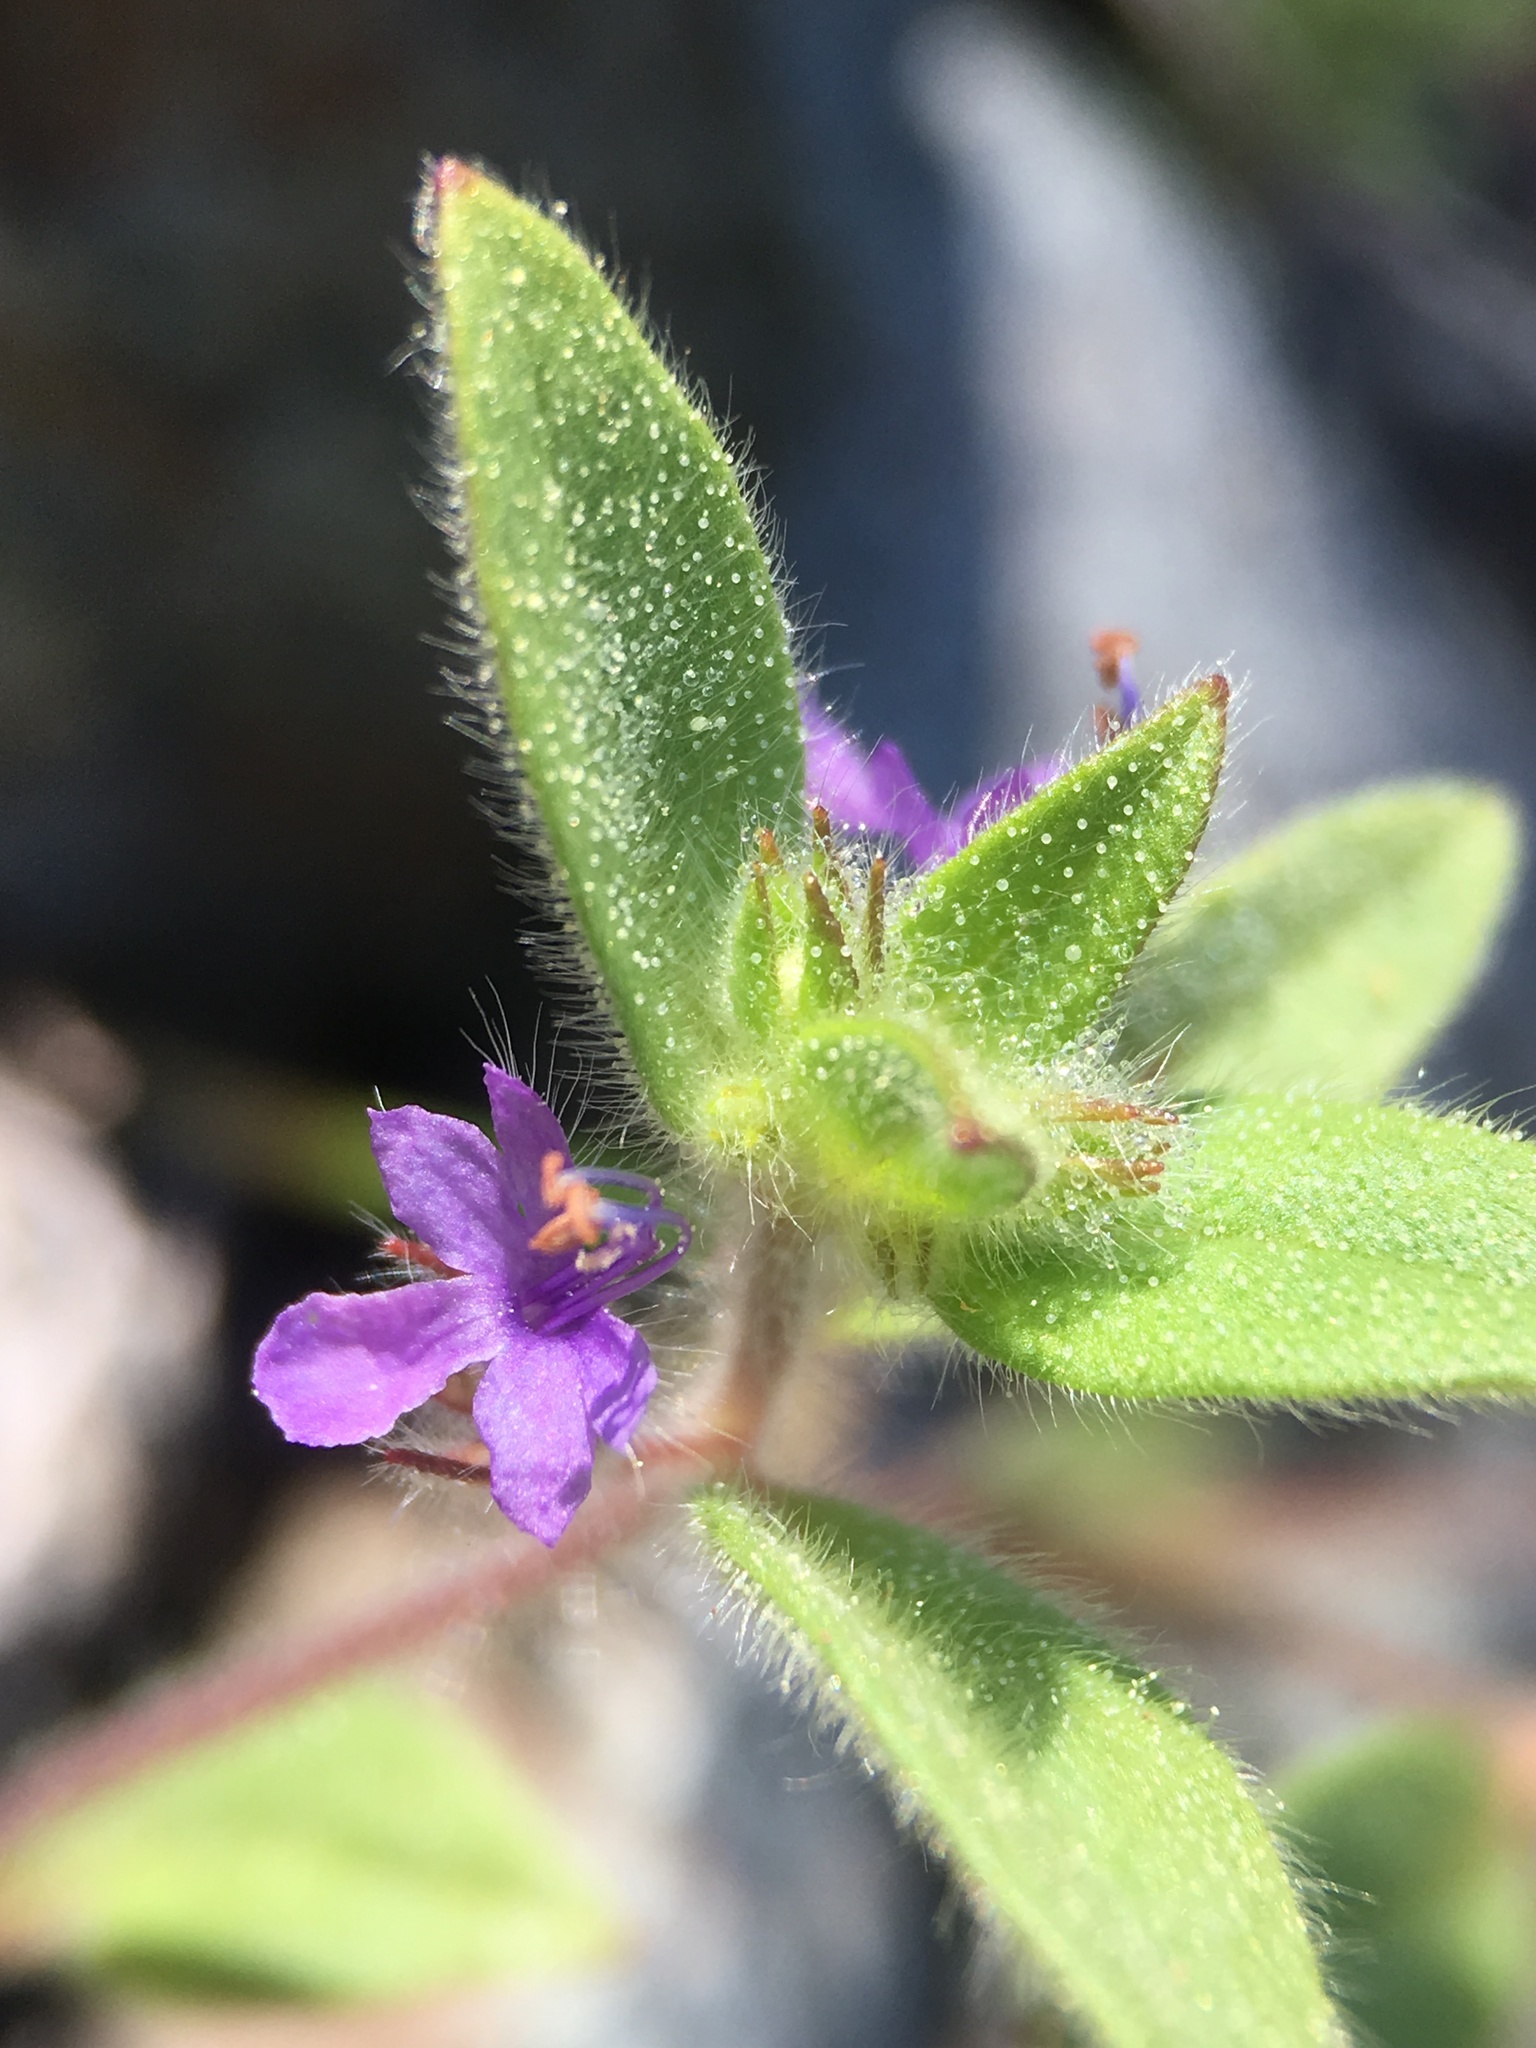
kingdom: Plantae
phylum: Tracheophyta
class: Magnoliopsida
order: Lamiales
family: Lamiaceae
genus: Trichostema
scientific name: Trichostema oblongum
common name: Mountain bluecurls
